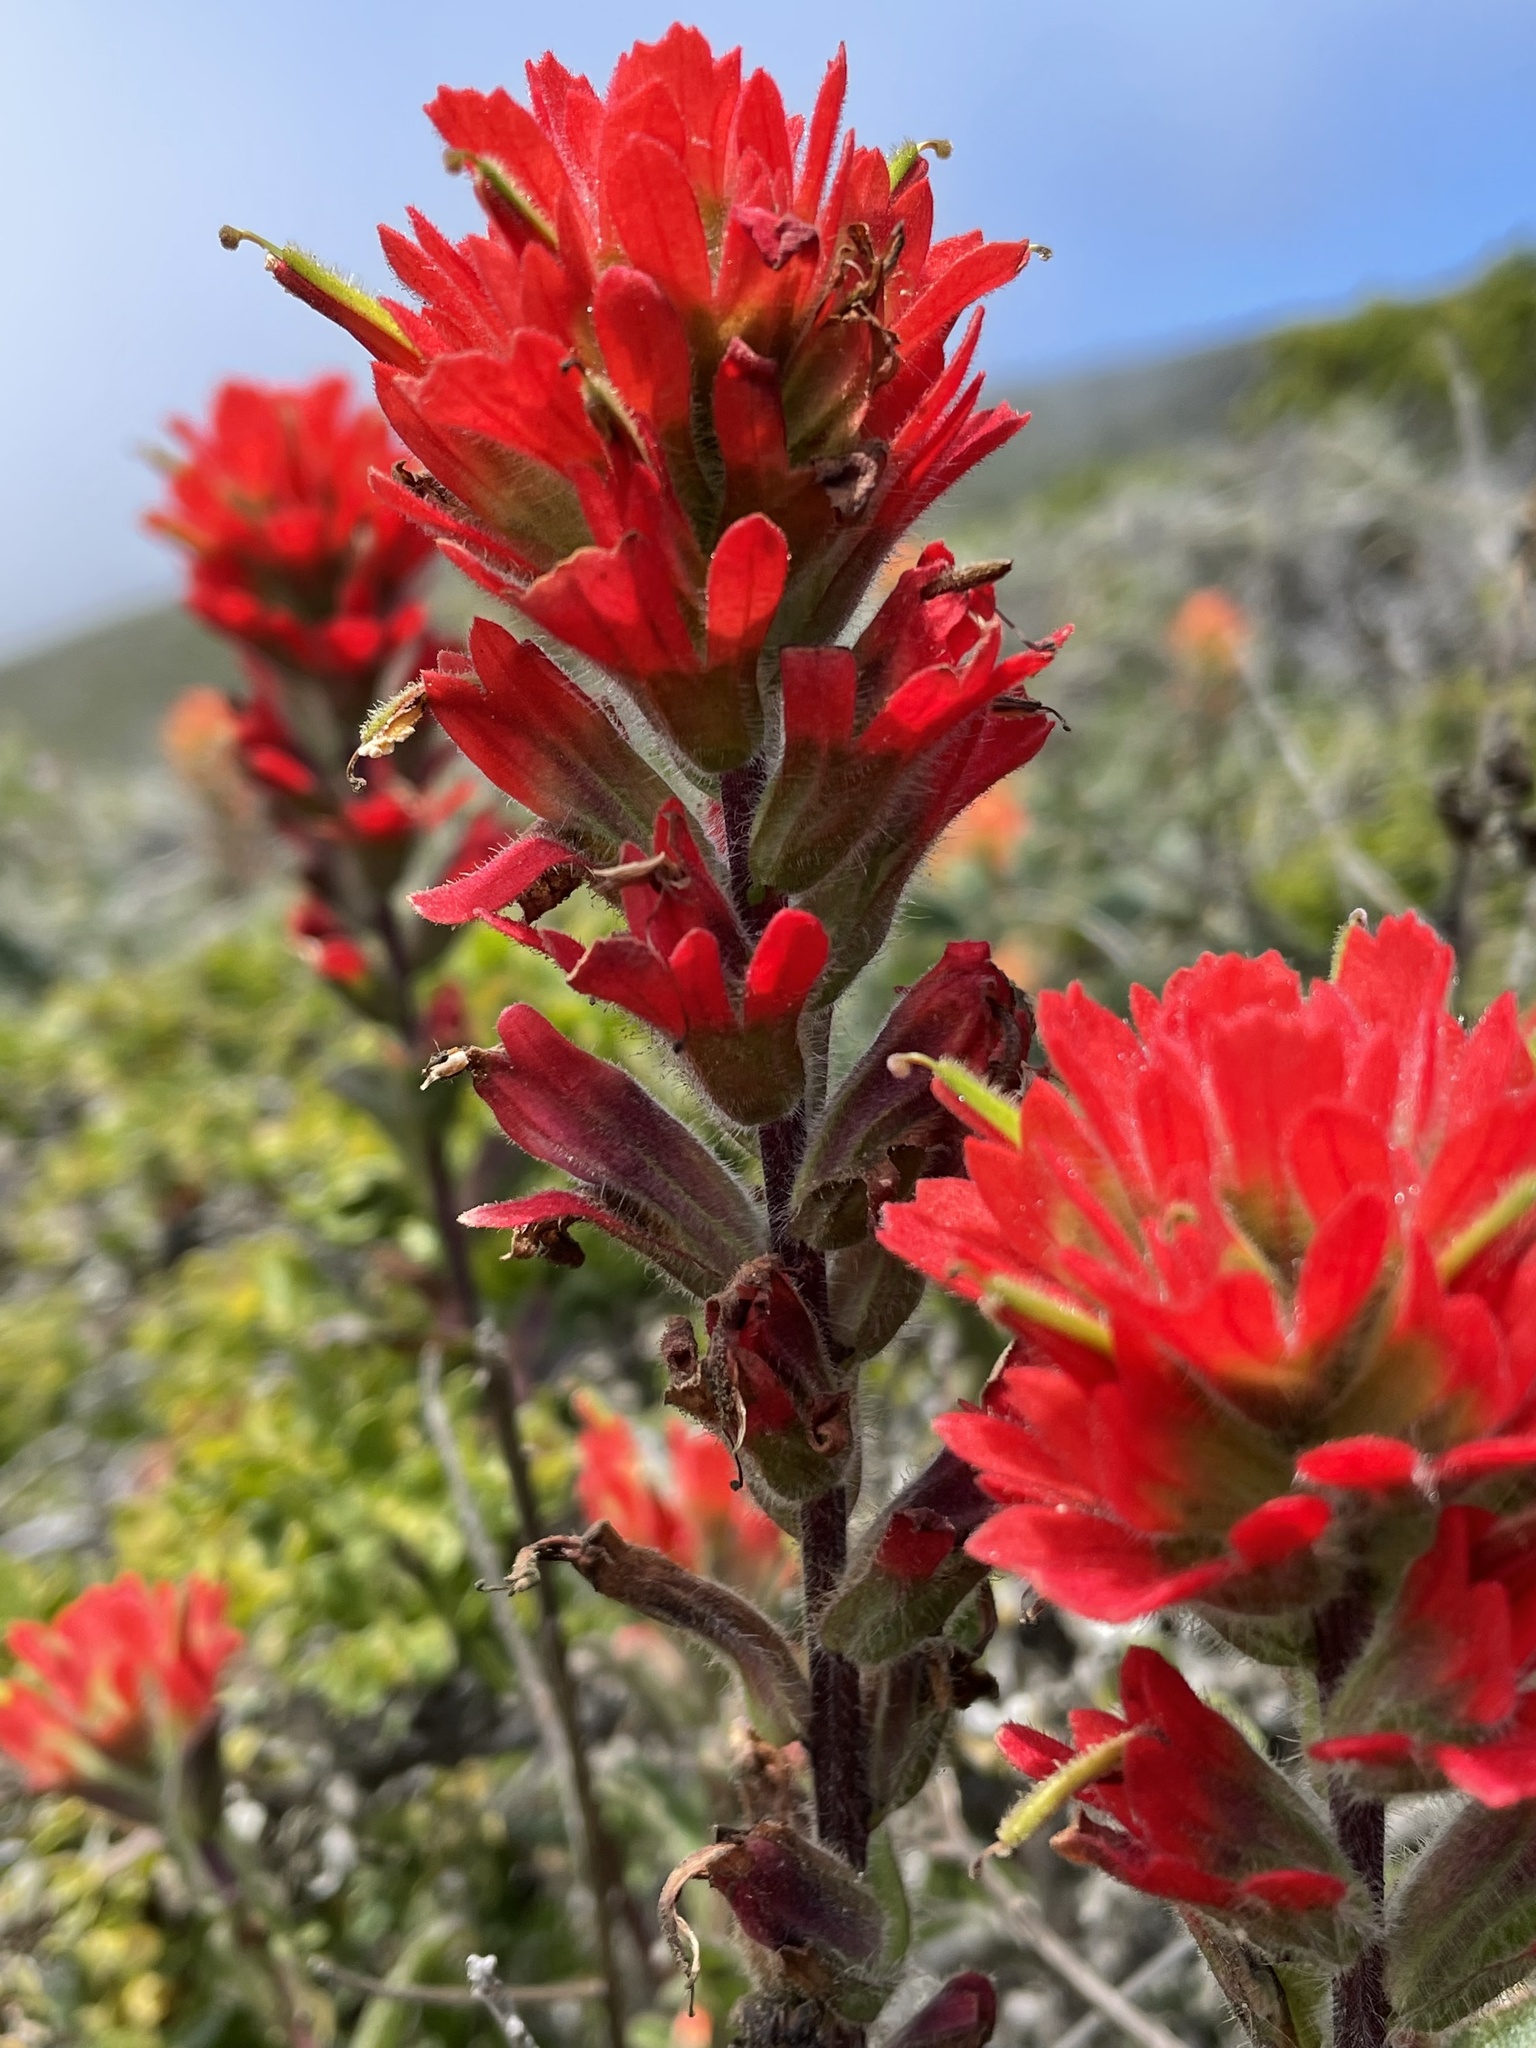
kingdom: Plantae
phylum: Tracheophyta
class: Magnoliopsida
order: Lamiales
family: Orobanchaceae
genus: Castilleja
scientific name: Castilleja latifolia
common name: Monterey indian paintbrush
